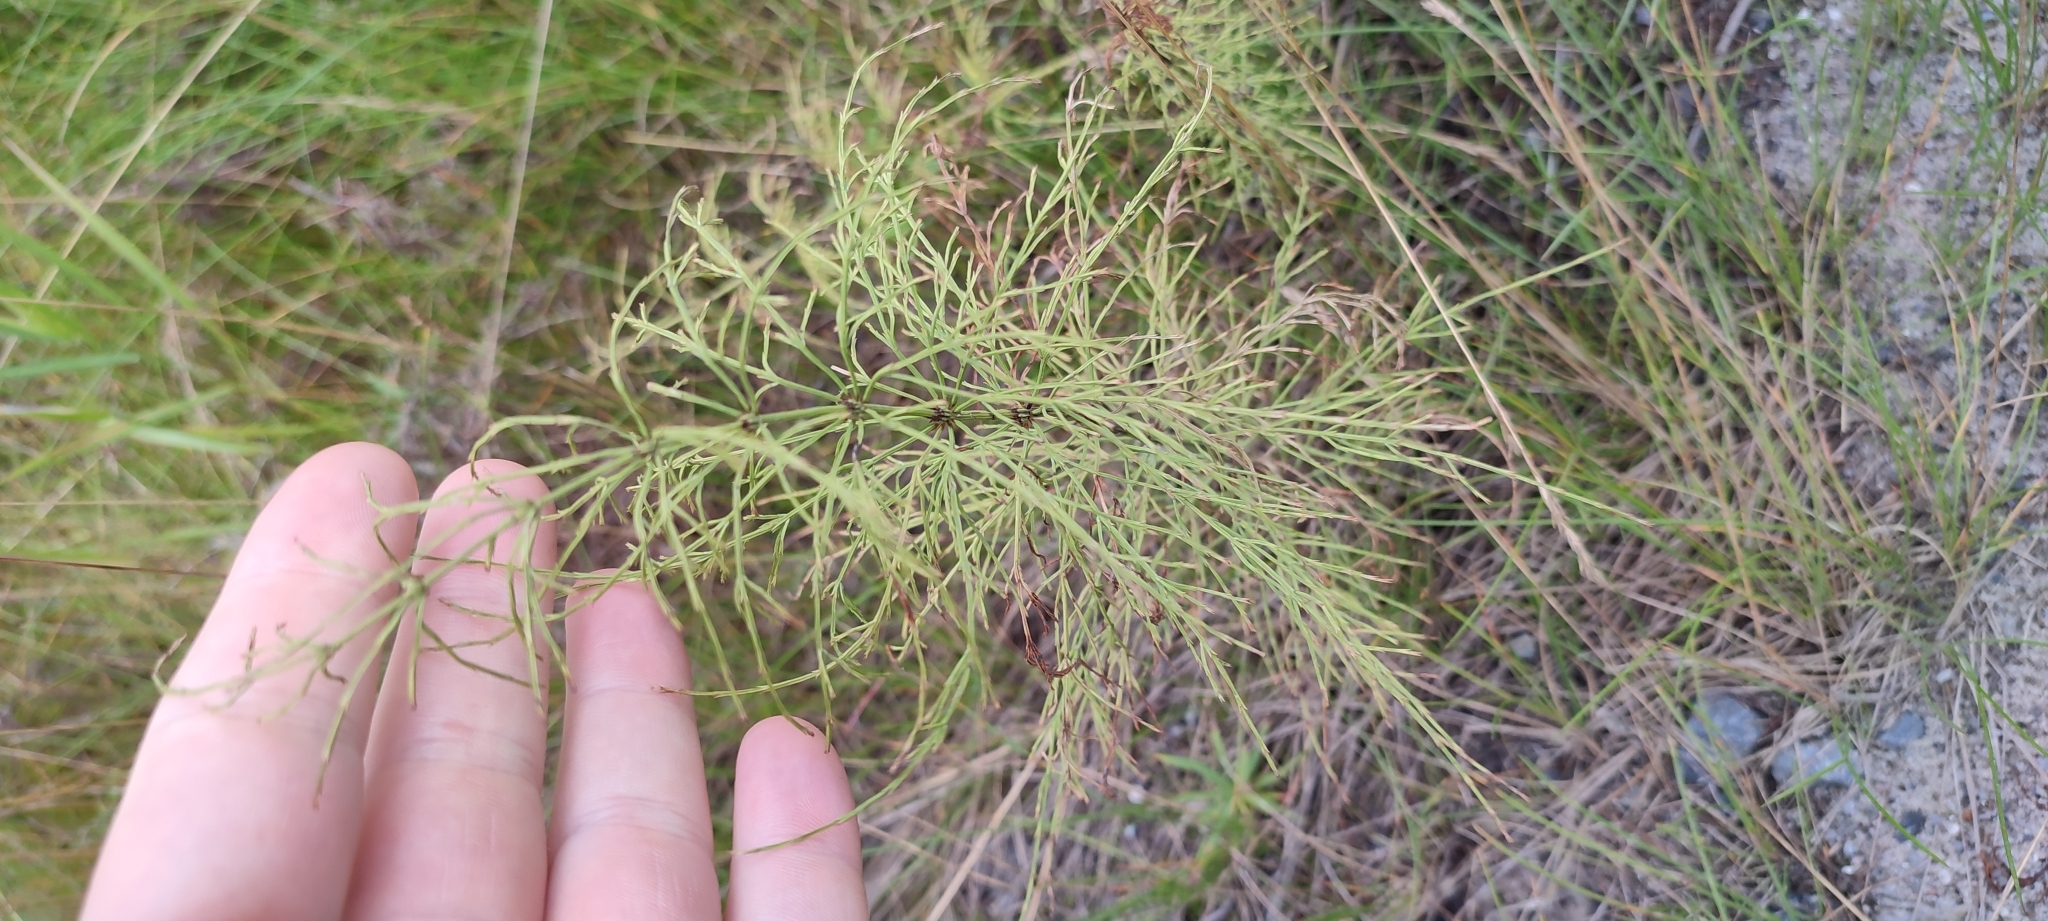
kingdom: Plantae
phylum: Tracheophyta
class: Polypodiopsida
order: Equisetales
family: Equisetaceae
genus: Equisetum
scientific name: Equisetum sylvaticum
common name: Wood horsetail
